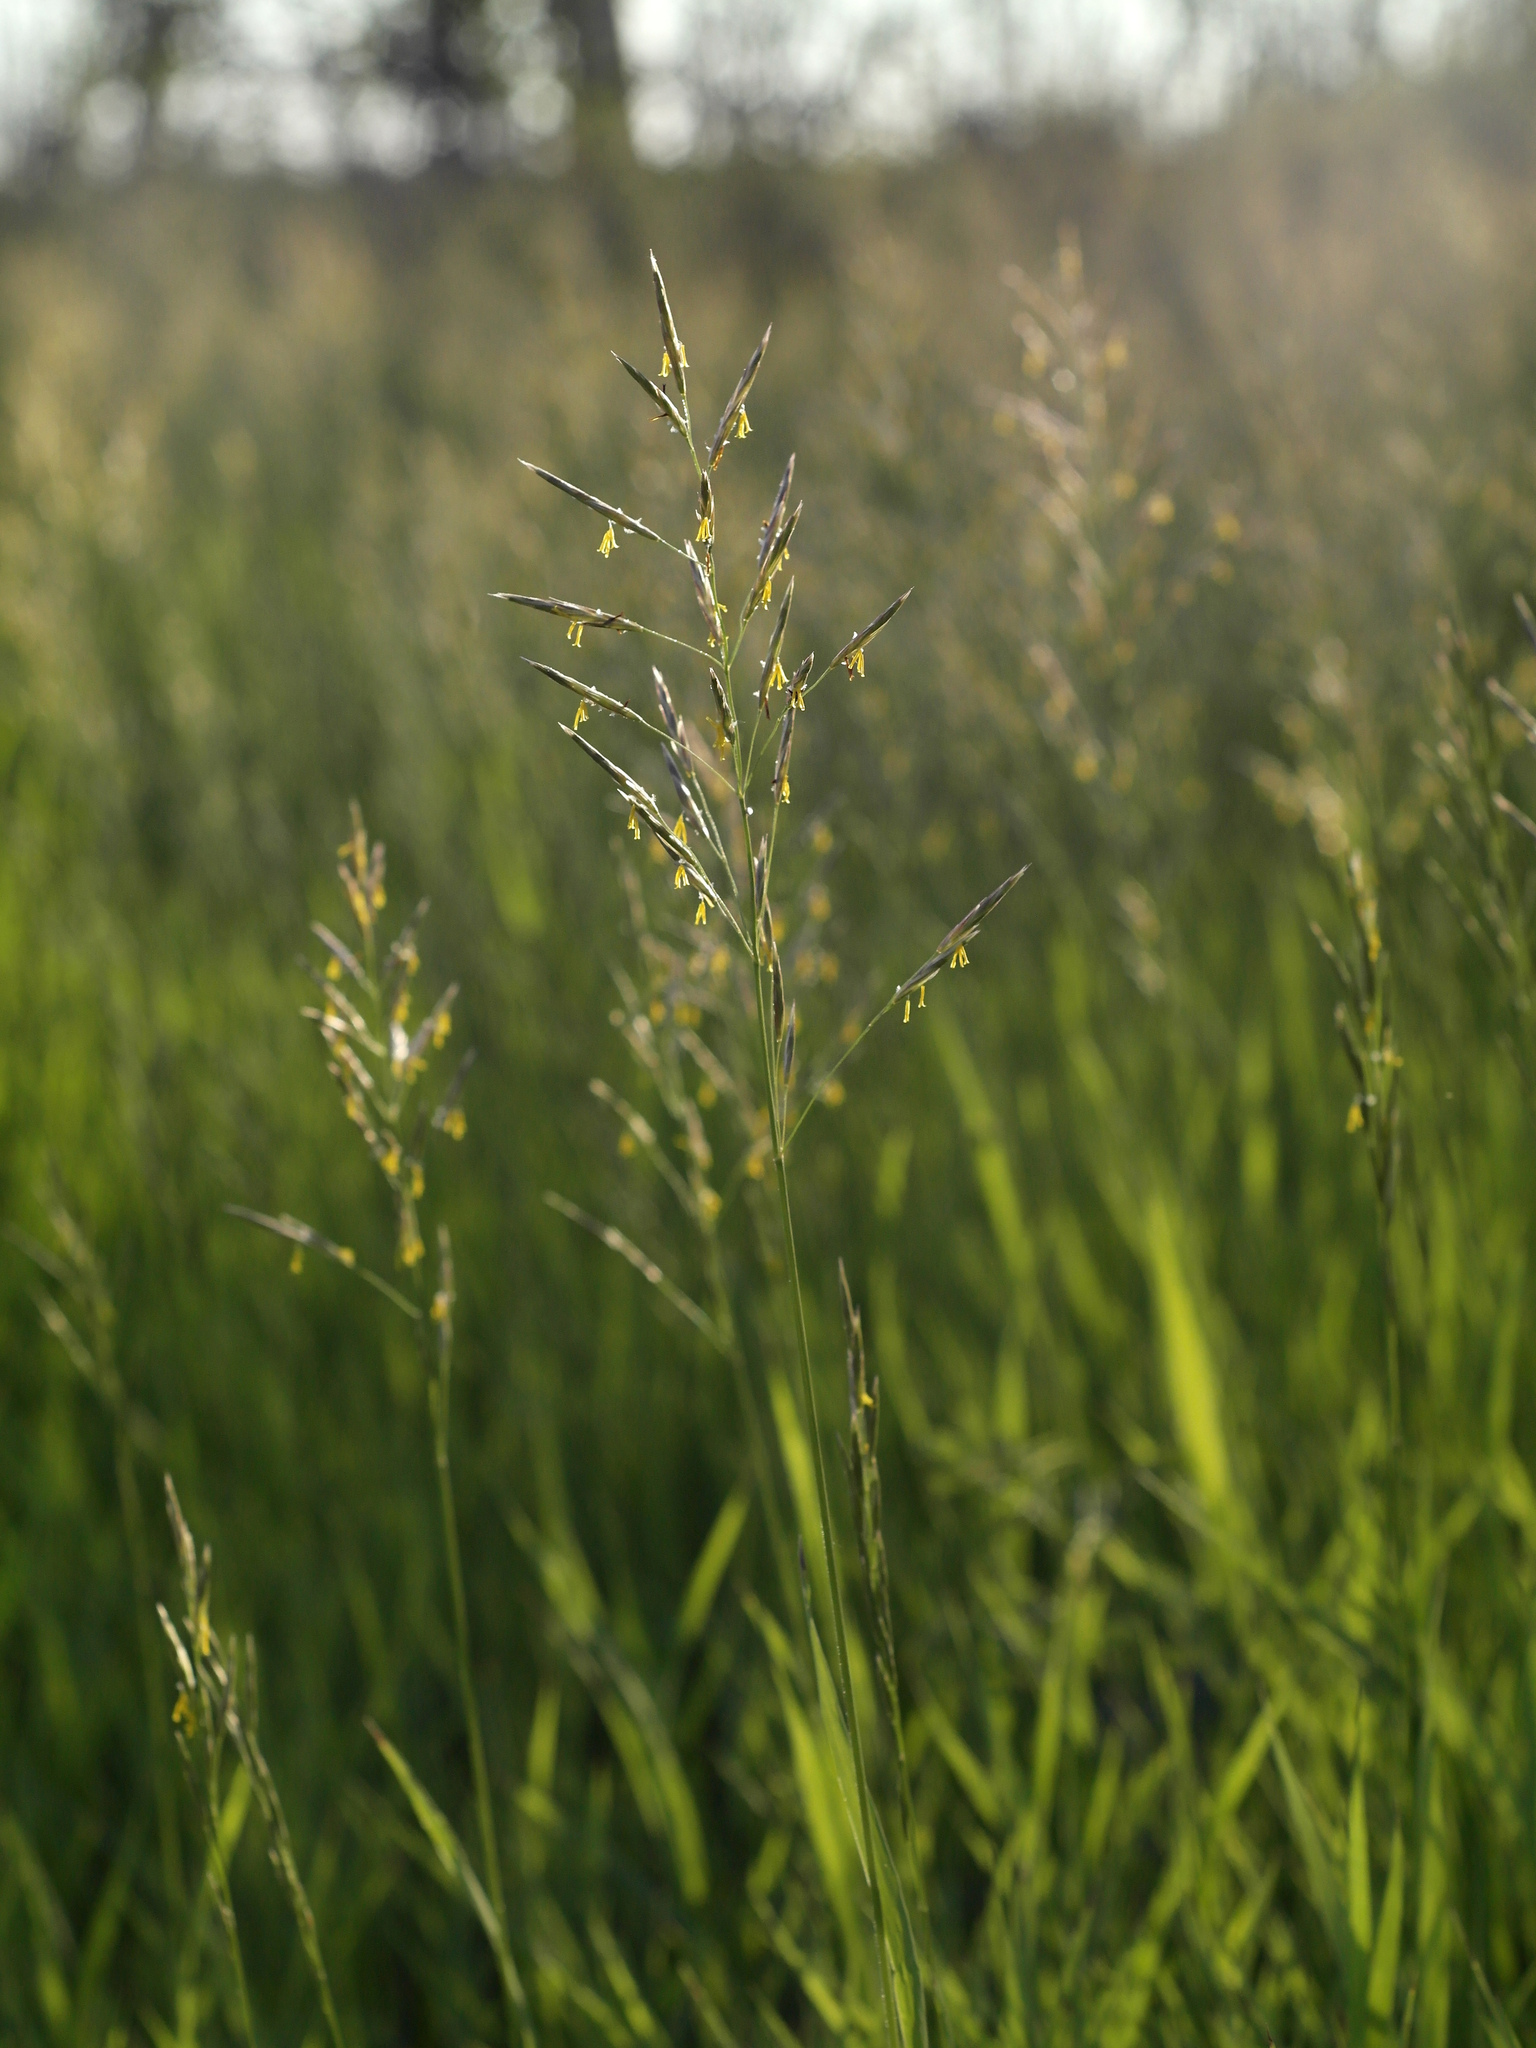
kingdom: Plantae
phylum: Tracheophyta
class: Liliopsida
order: Poales
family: Poaceae
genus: Bromus
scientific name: Bromus inermis
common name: Smooth brome
